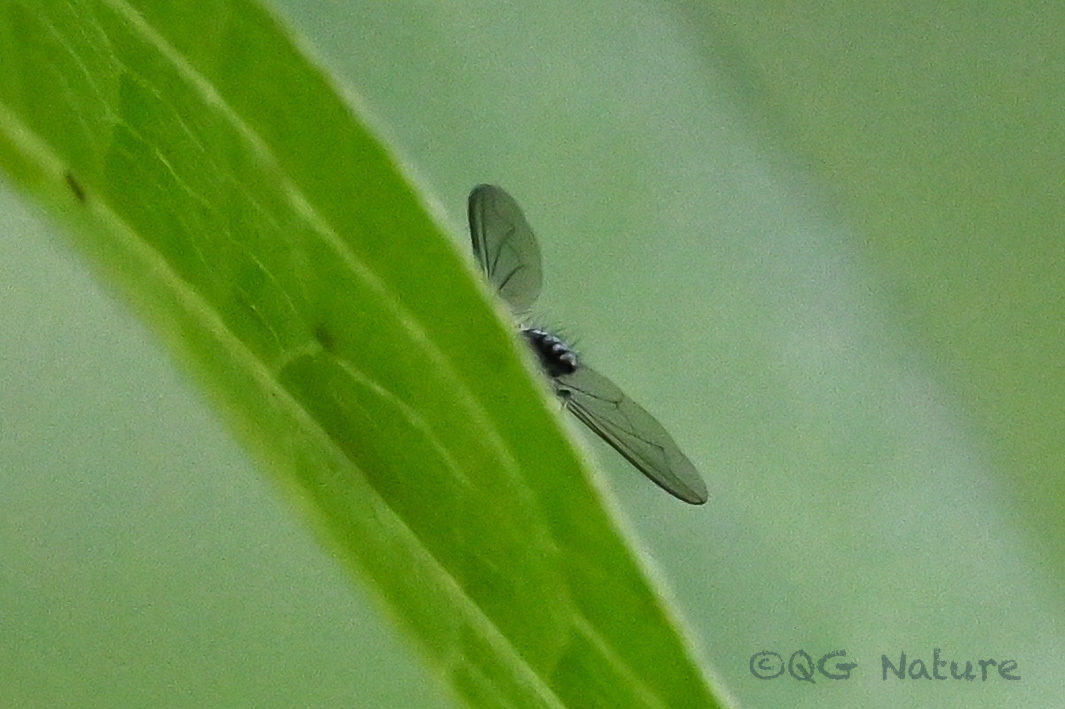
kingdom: Animalia
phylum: Arthropoda
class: Insecta
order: Diptera
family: Dolichopodidae
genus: Chrysosoma
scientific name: Chrysosoma globifer
